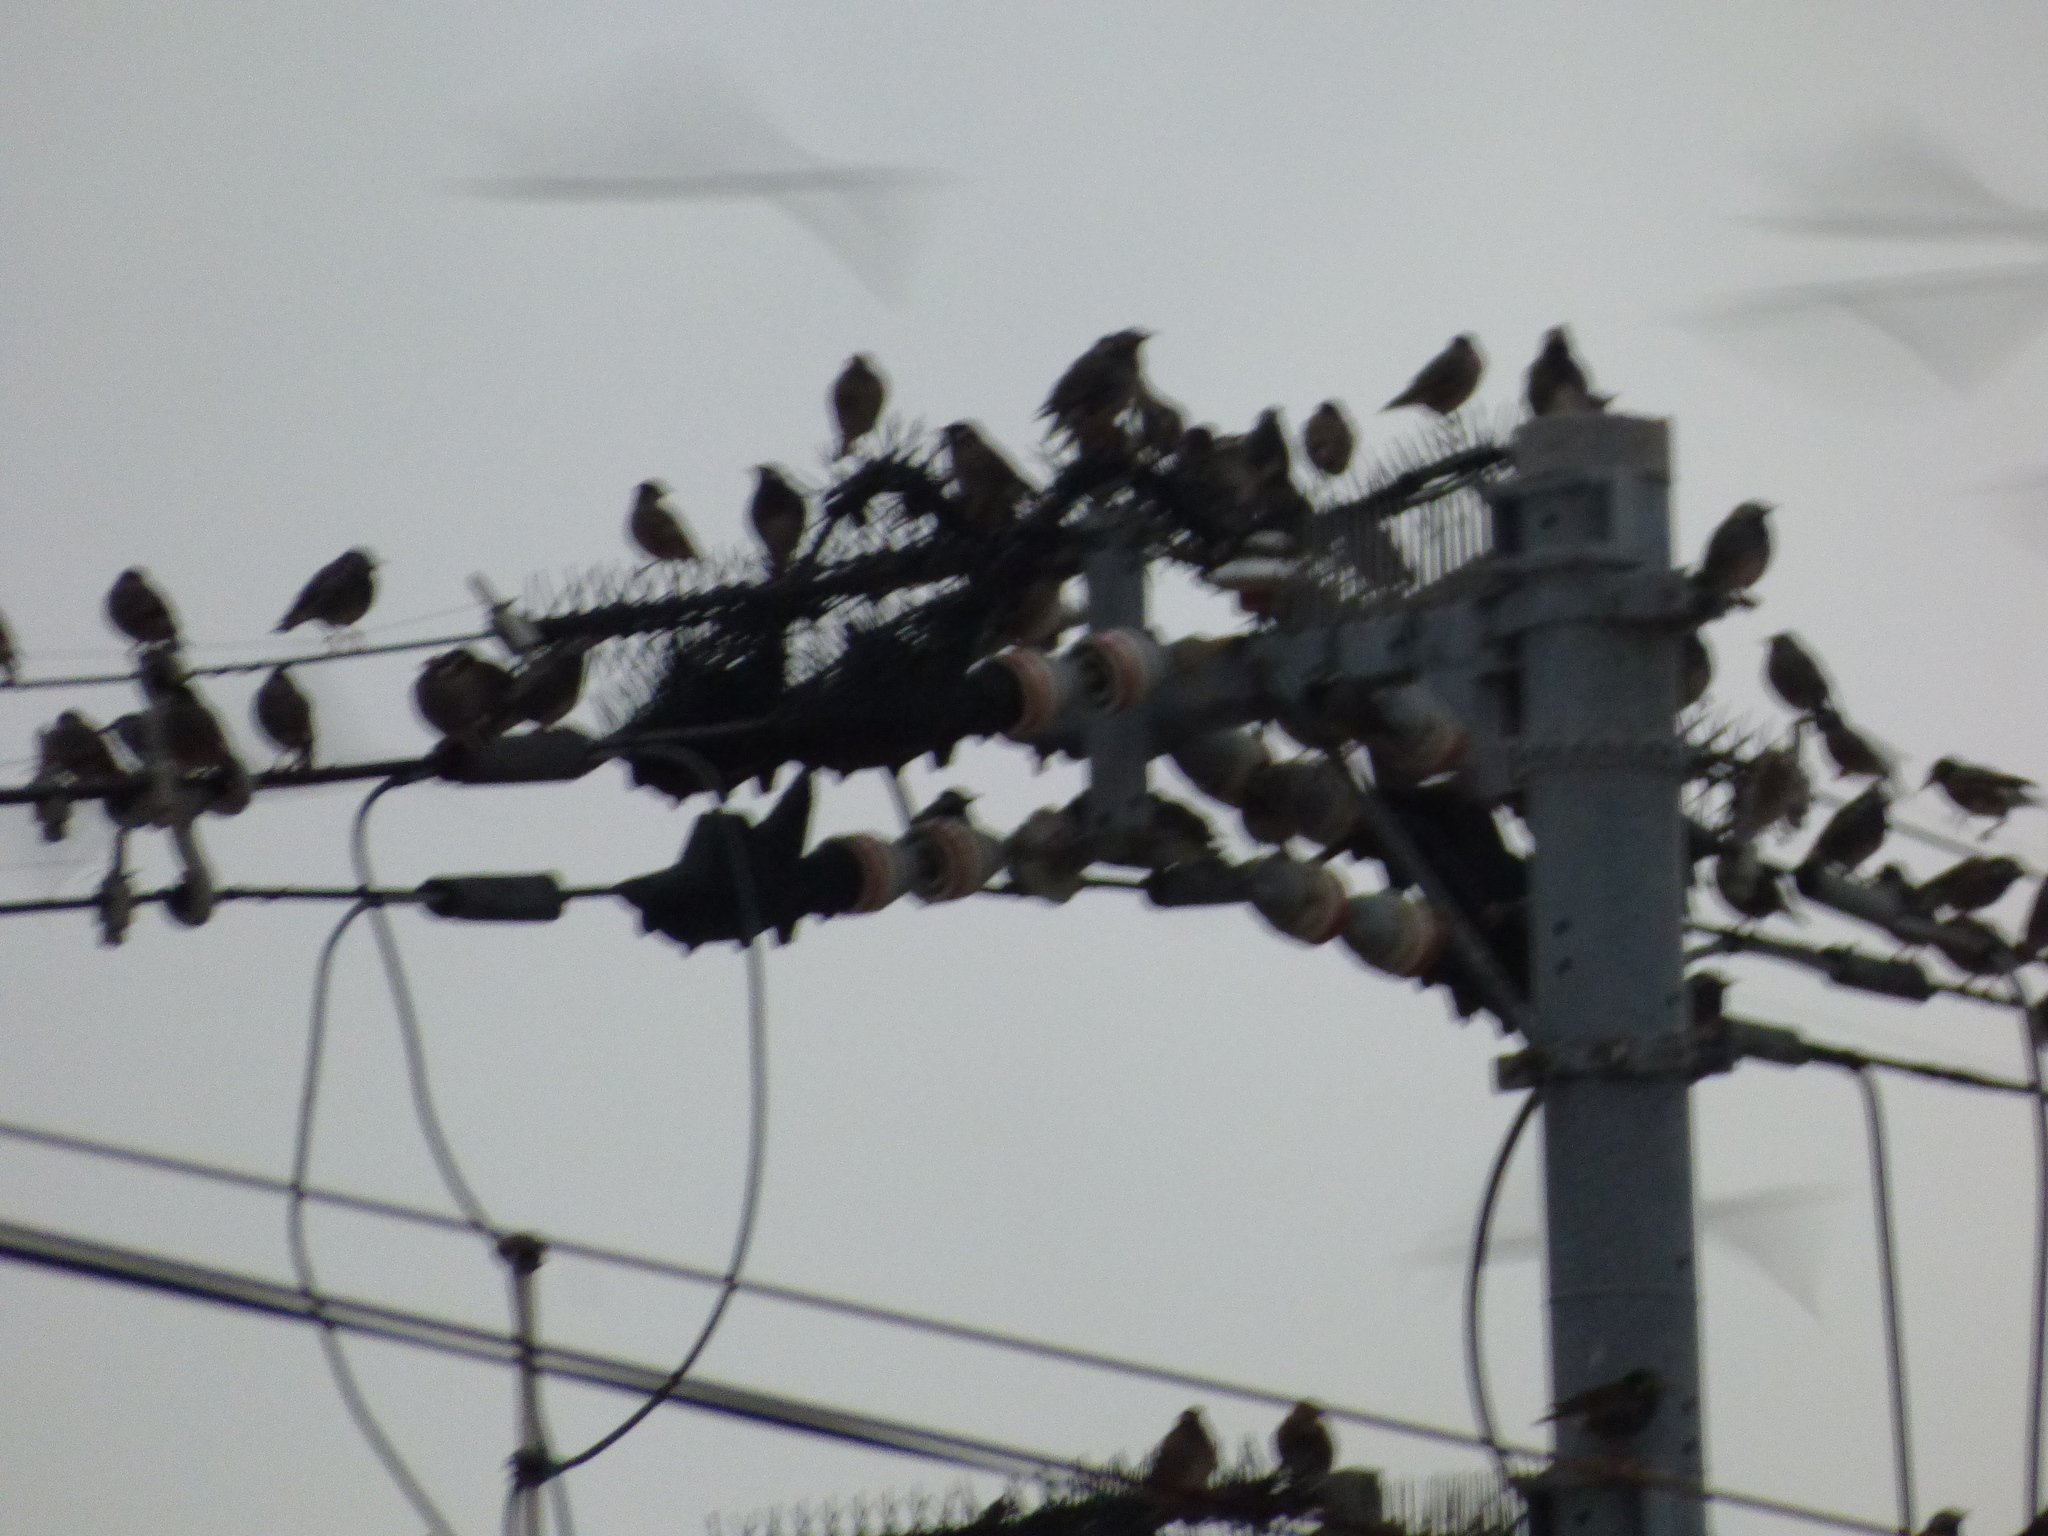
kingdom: Animalia
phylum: Chordata
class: Aves
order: Passeriformes
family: Sturnidae
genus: Spodiopsar
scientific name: Spodiopsar cineraceus
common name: White-cheeked starling
